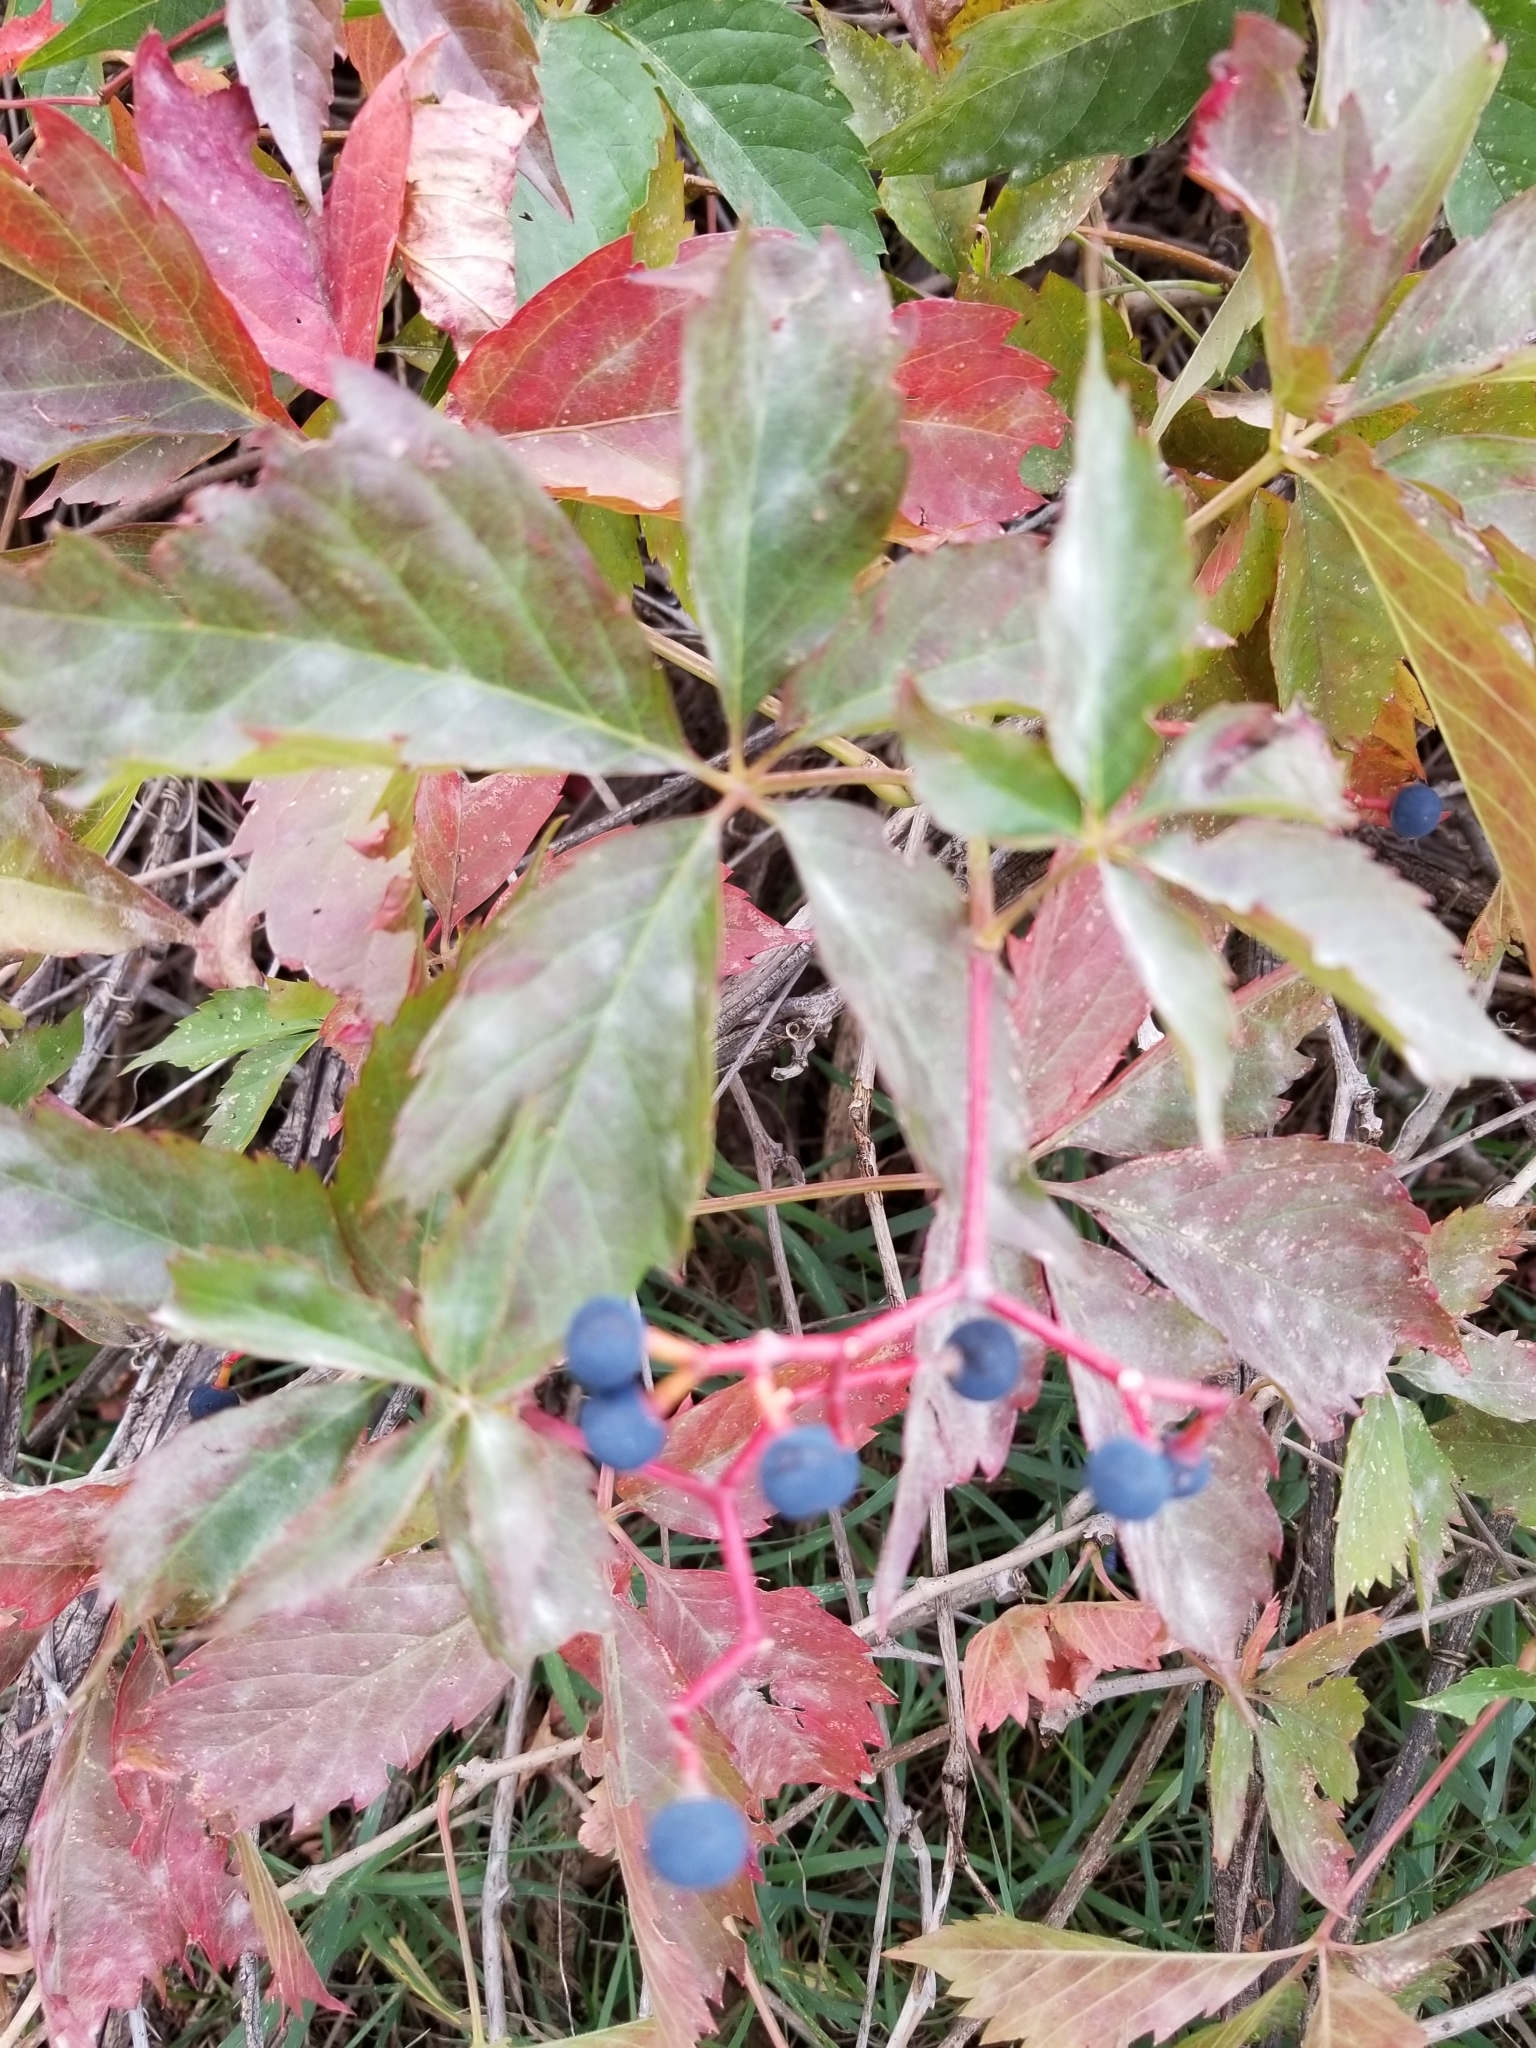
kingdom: Plantae
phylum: Tracheophyta
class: Magnoliopsida
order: Vitales
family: Vitaceae
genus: Parthenocissus
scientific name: Parthenocissus quinquefolia
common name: Virginia-creeper
